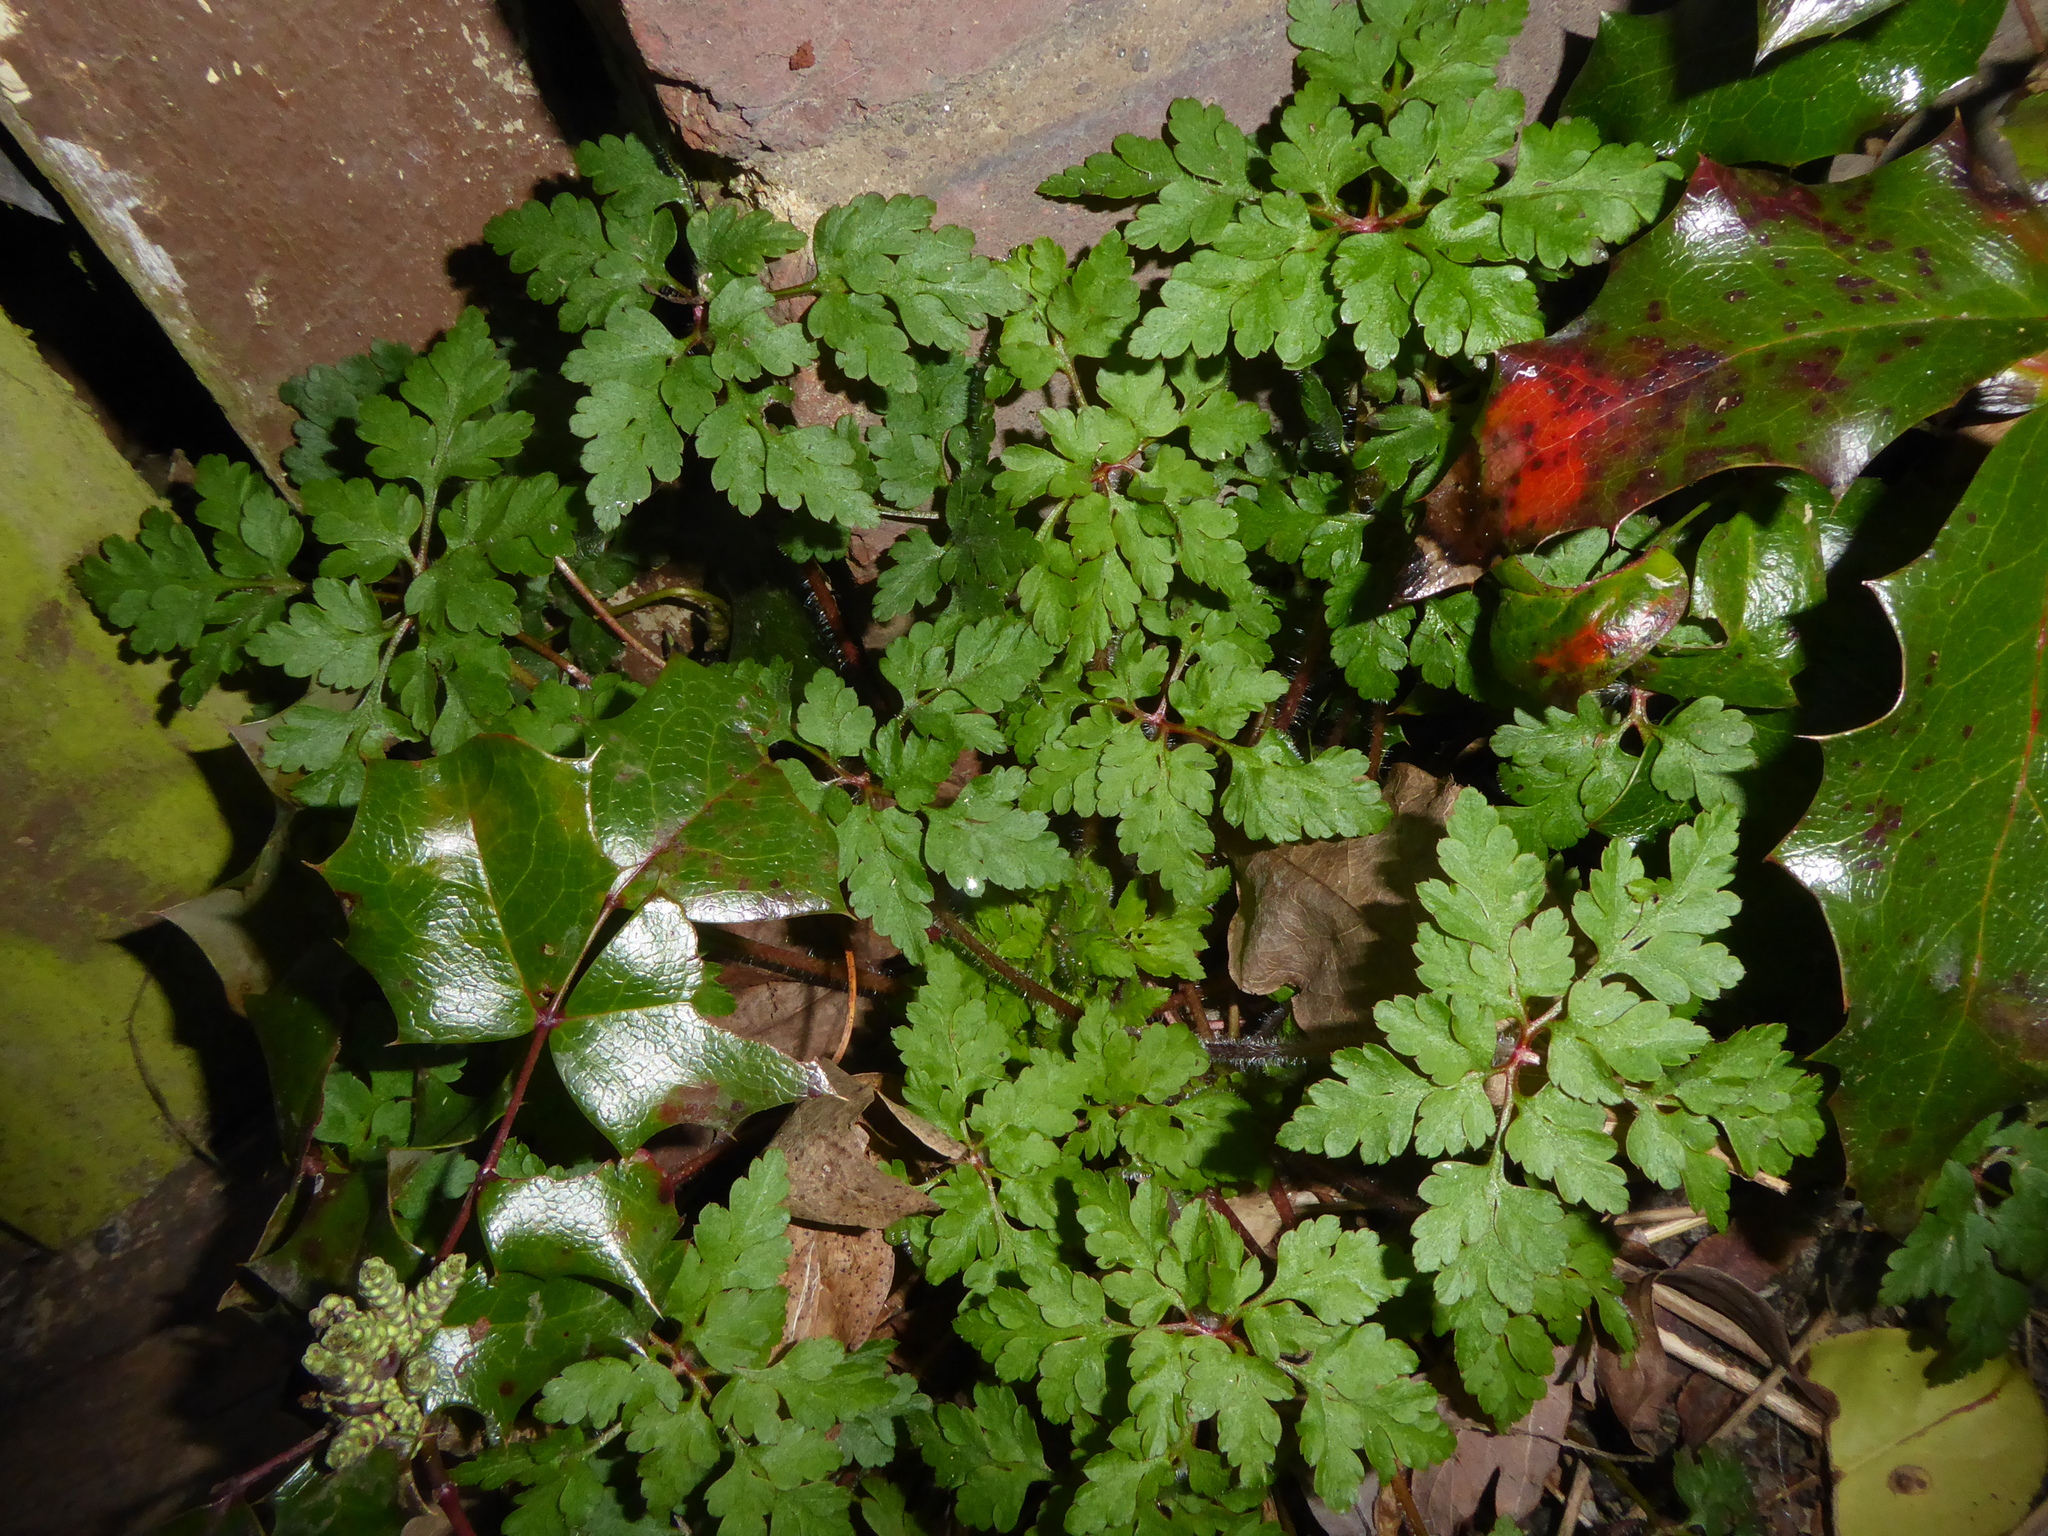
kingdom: Plantae
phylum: Tracheophyta
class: Magnoliopsida
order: Geraniales
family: Geraniaceae
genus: Geranium
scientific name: Geranium robertianum
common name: Herb-robert
